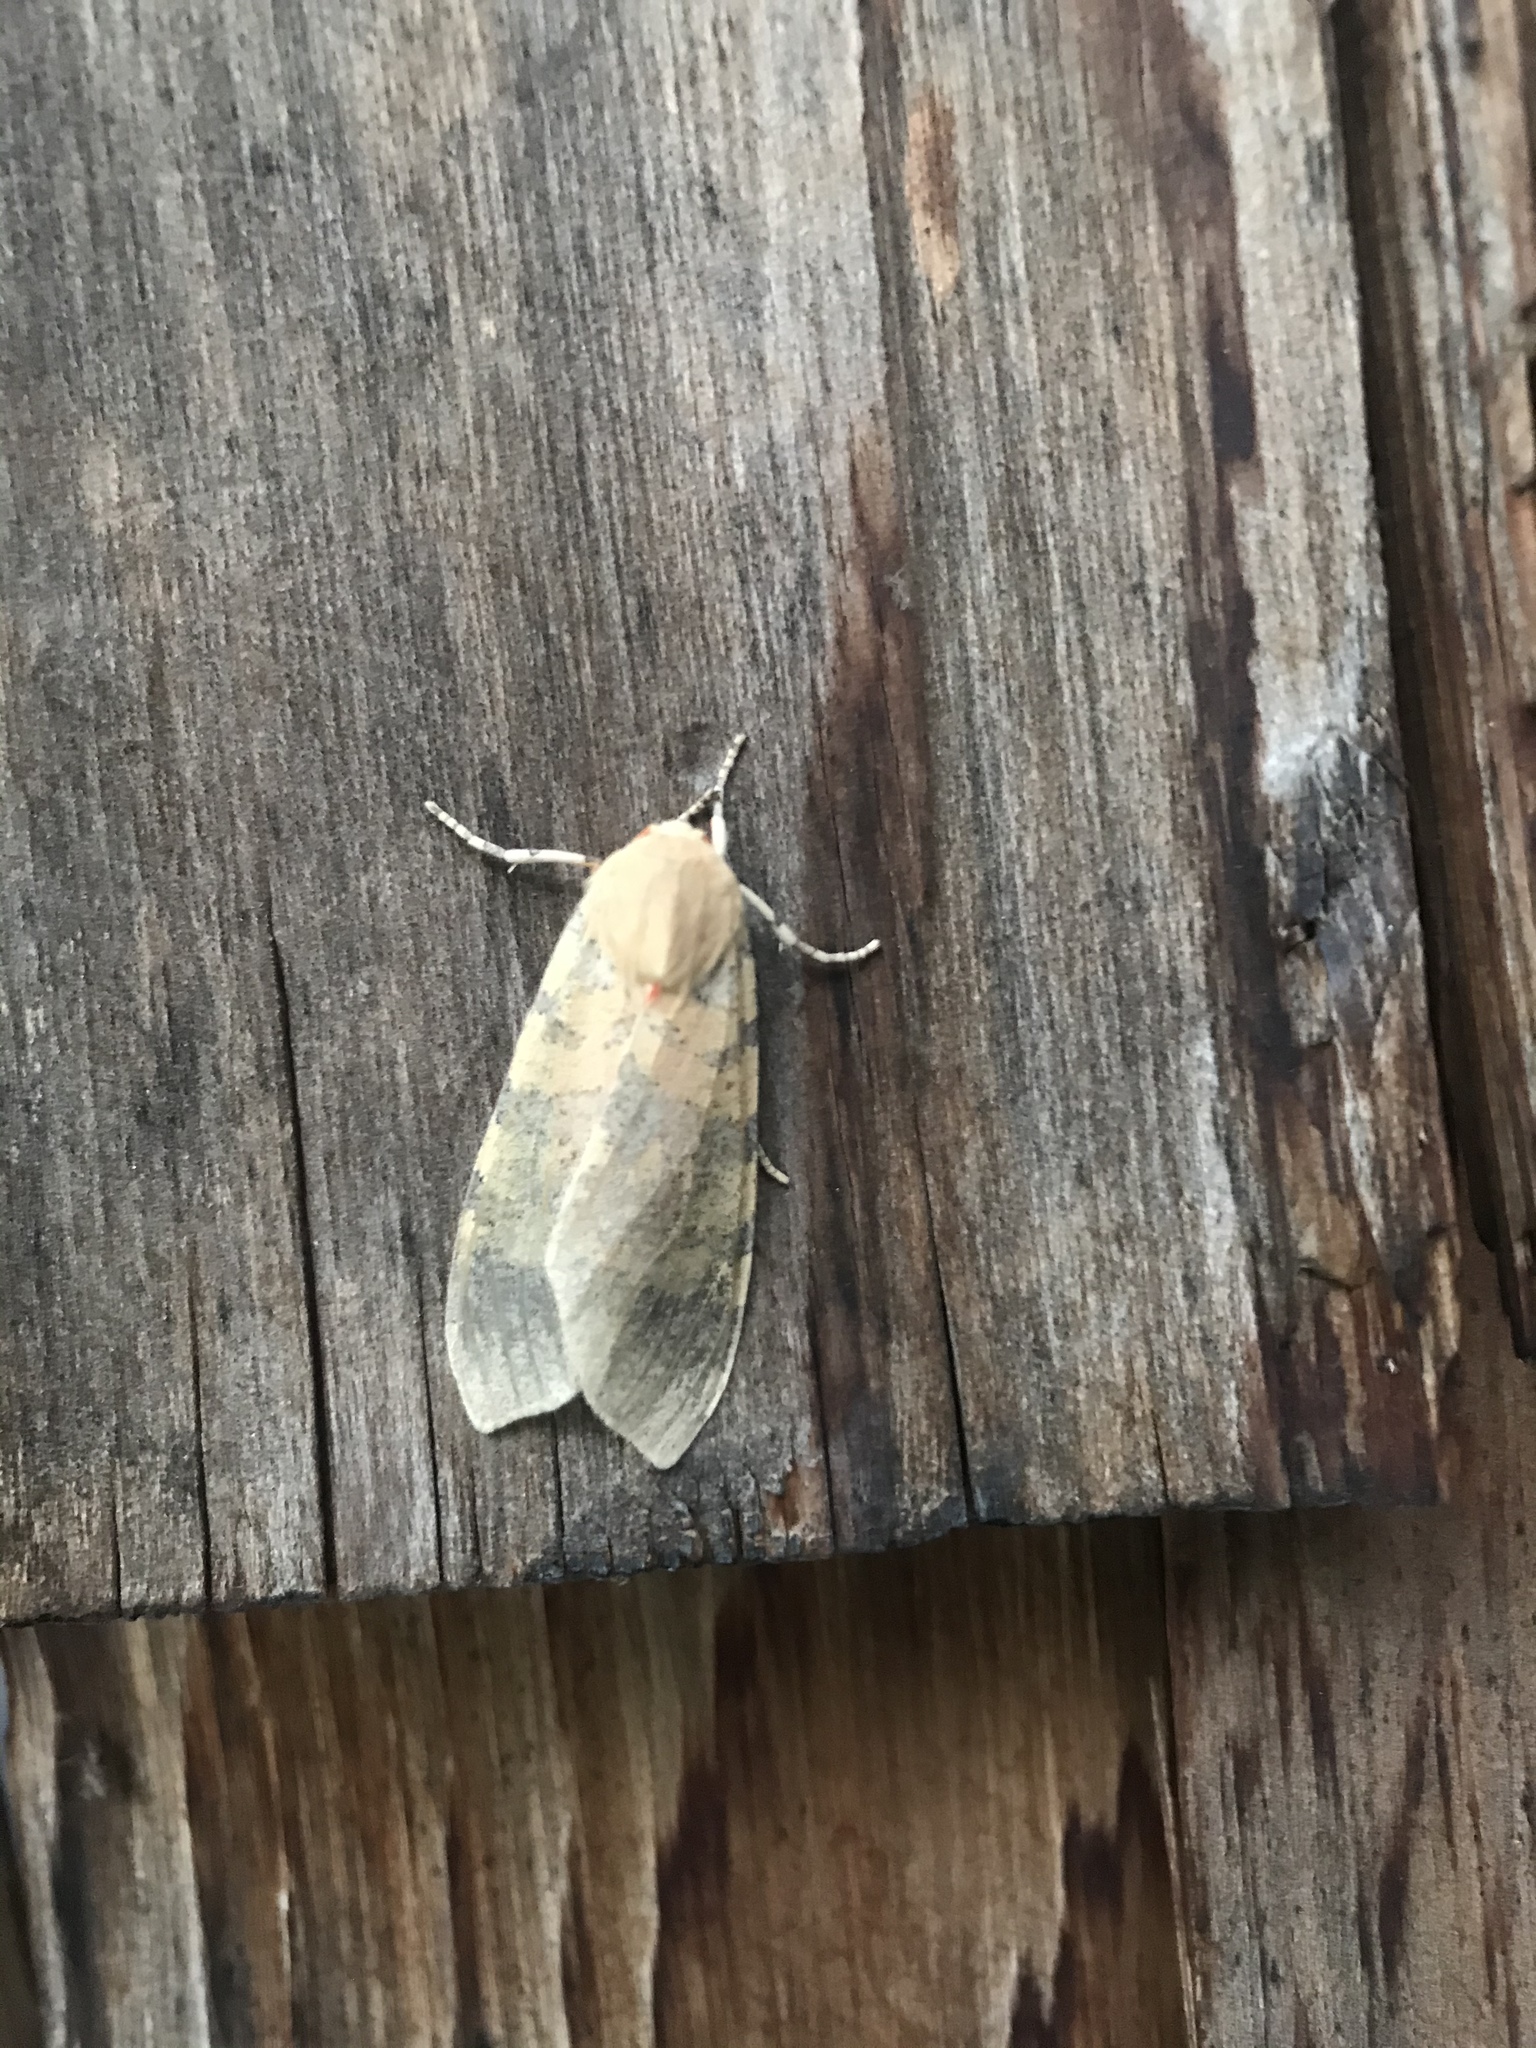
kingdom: Animalia
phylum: Arthropoda
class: Insecta
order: Lepidoptera
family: Erebidae
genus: Hemihyalea
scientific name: Hemihyalea edwardsii
